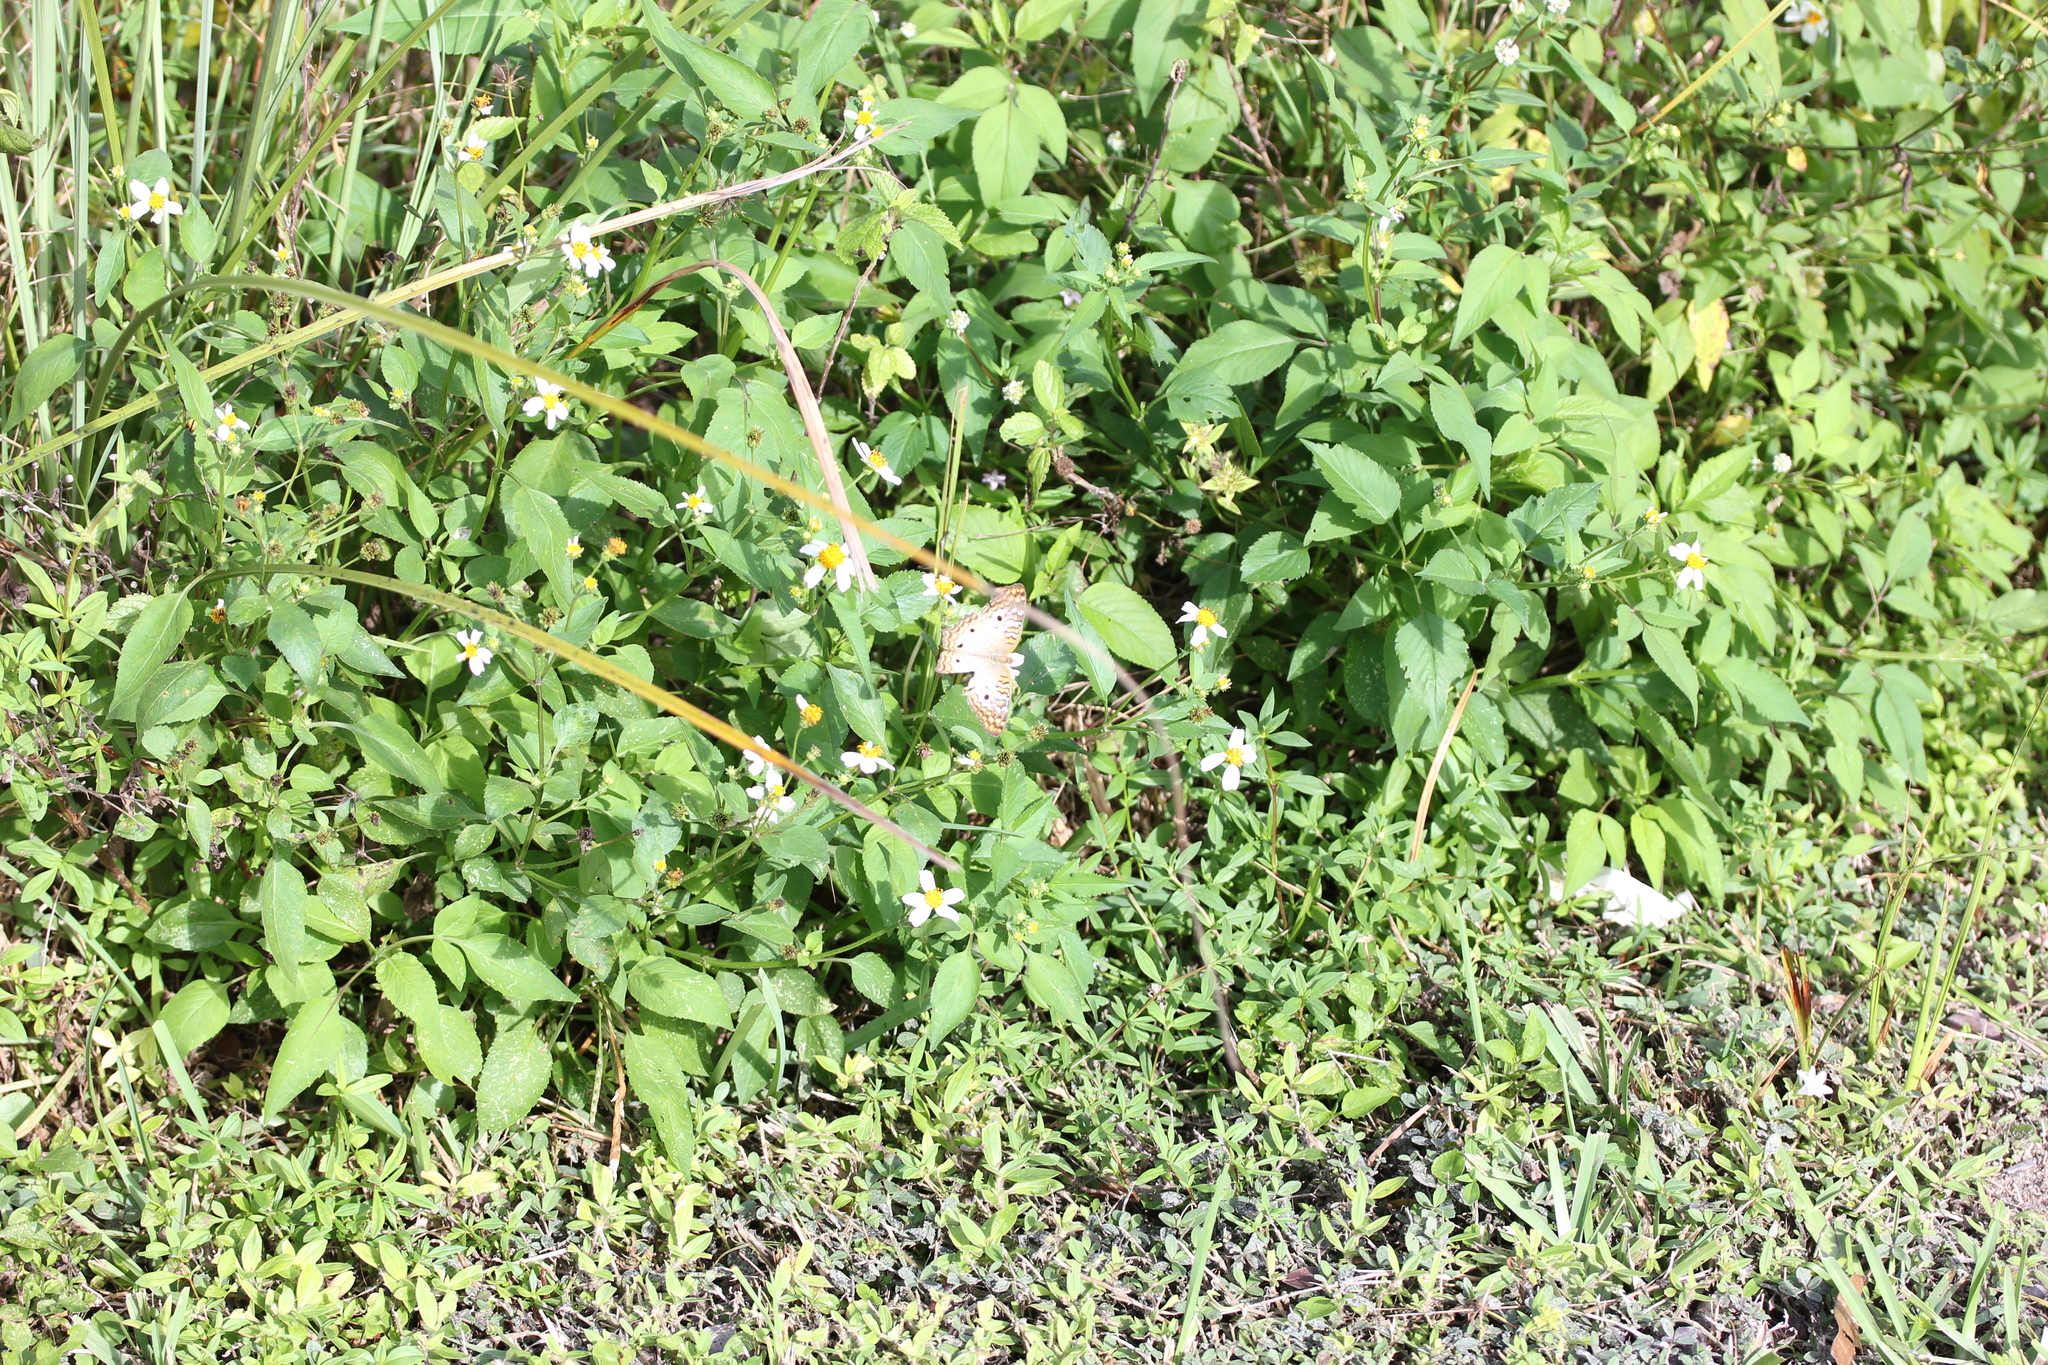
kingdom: Plantae
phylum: Tracheophyta
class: Magnoliopsida
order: Asterales
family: Asteraceae
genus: Bidens
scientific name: Bidens alba
